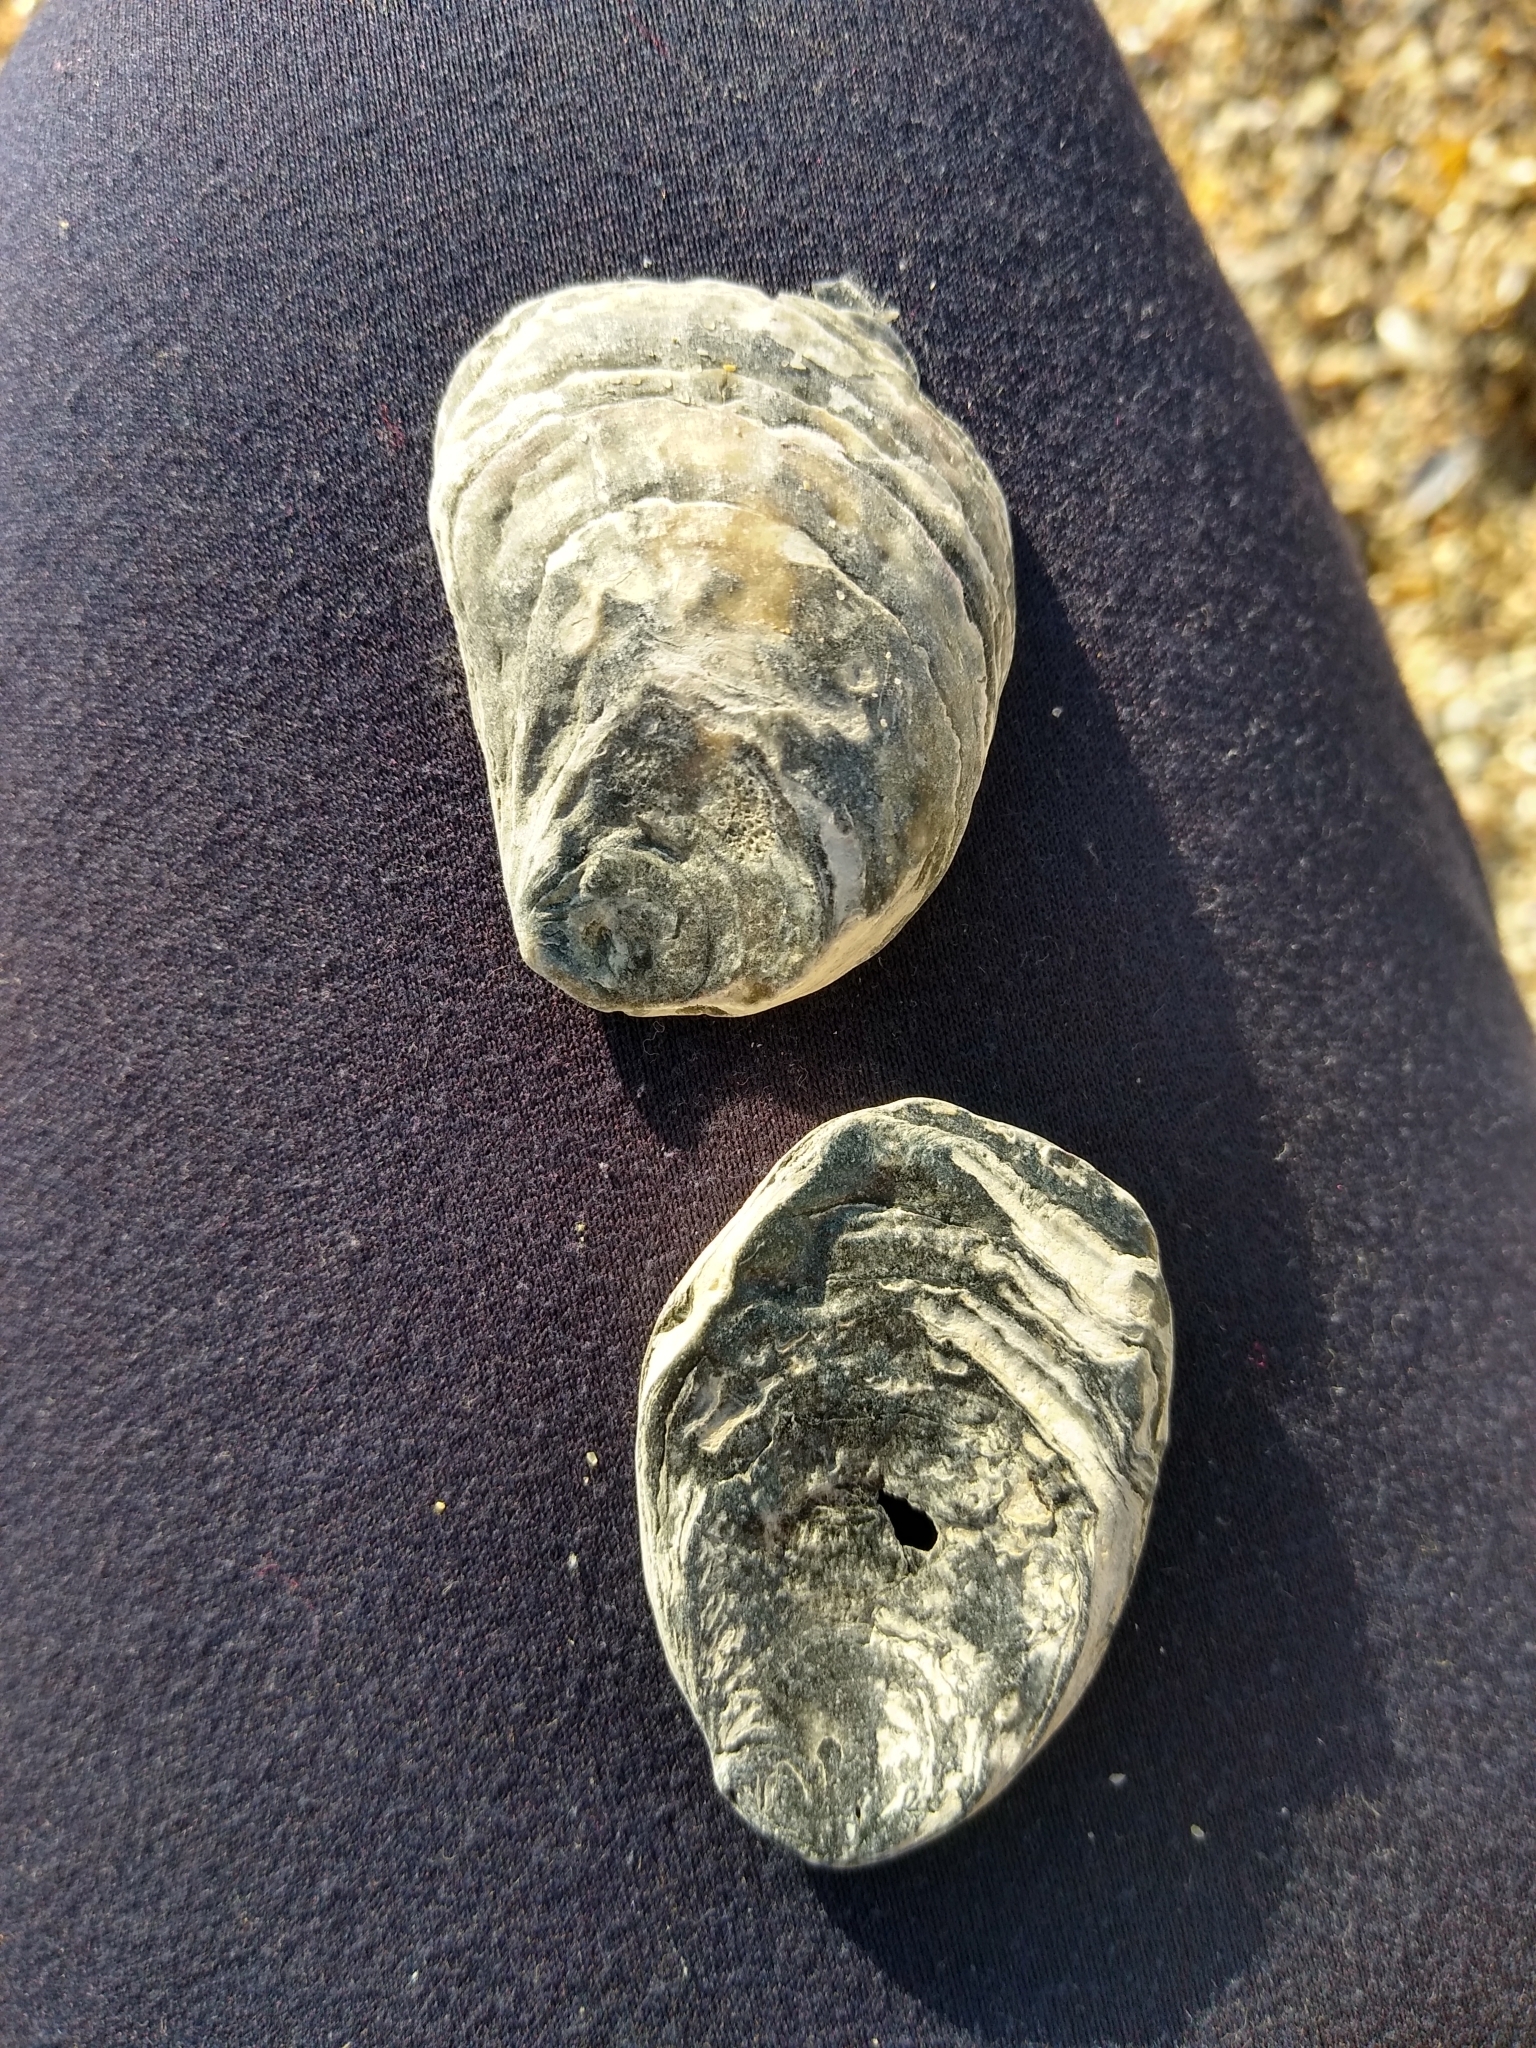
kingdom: Animalia
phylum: Mollusca
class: Bivalvia
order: Ostreida
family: Ostreidae
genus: Ostrea
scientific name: Ostrea edulis
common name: Flat oyster
